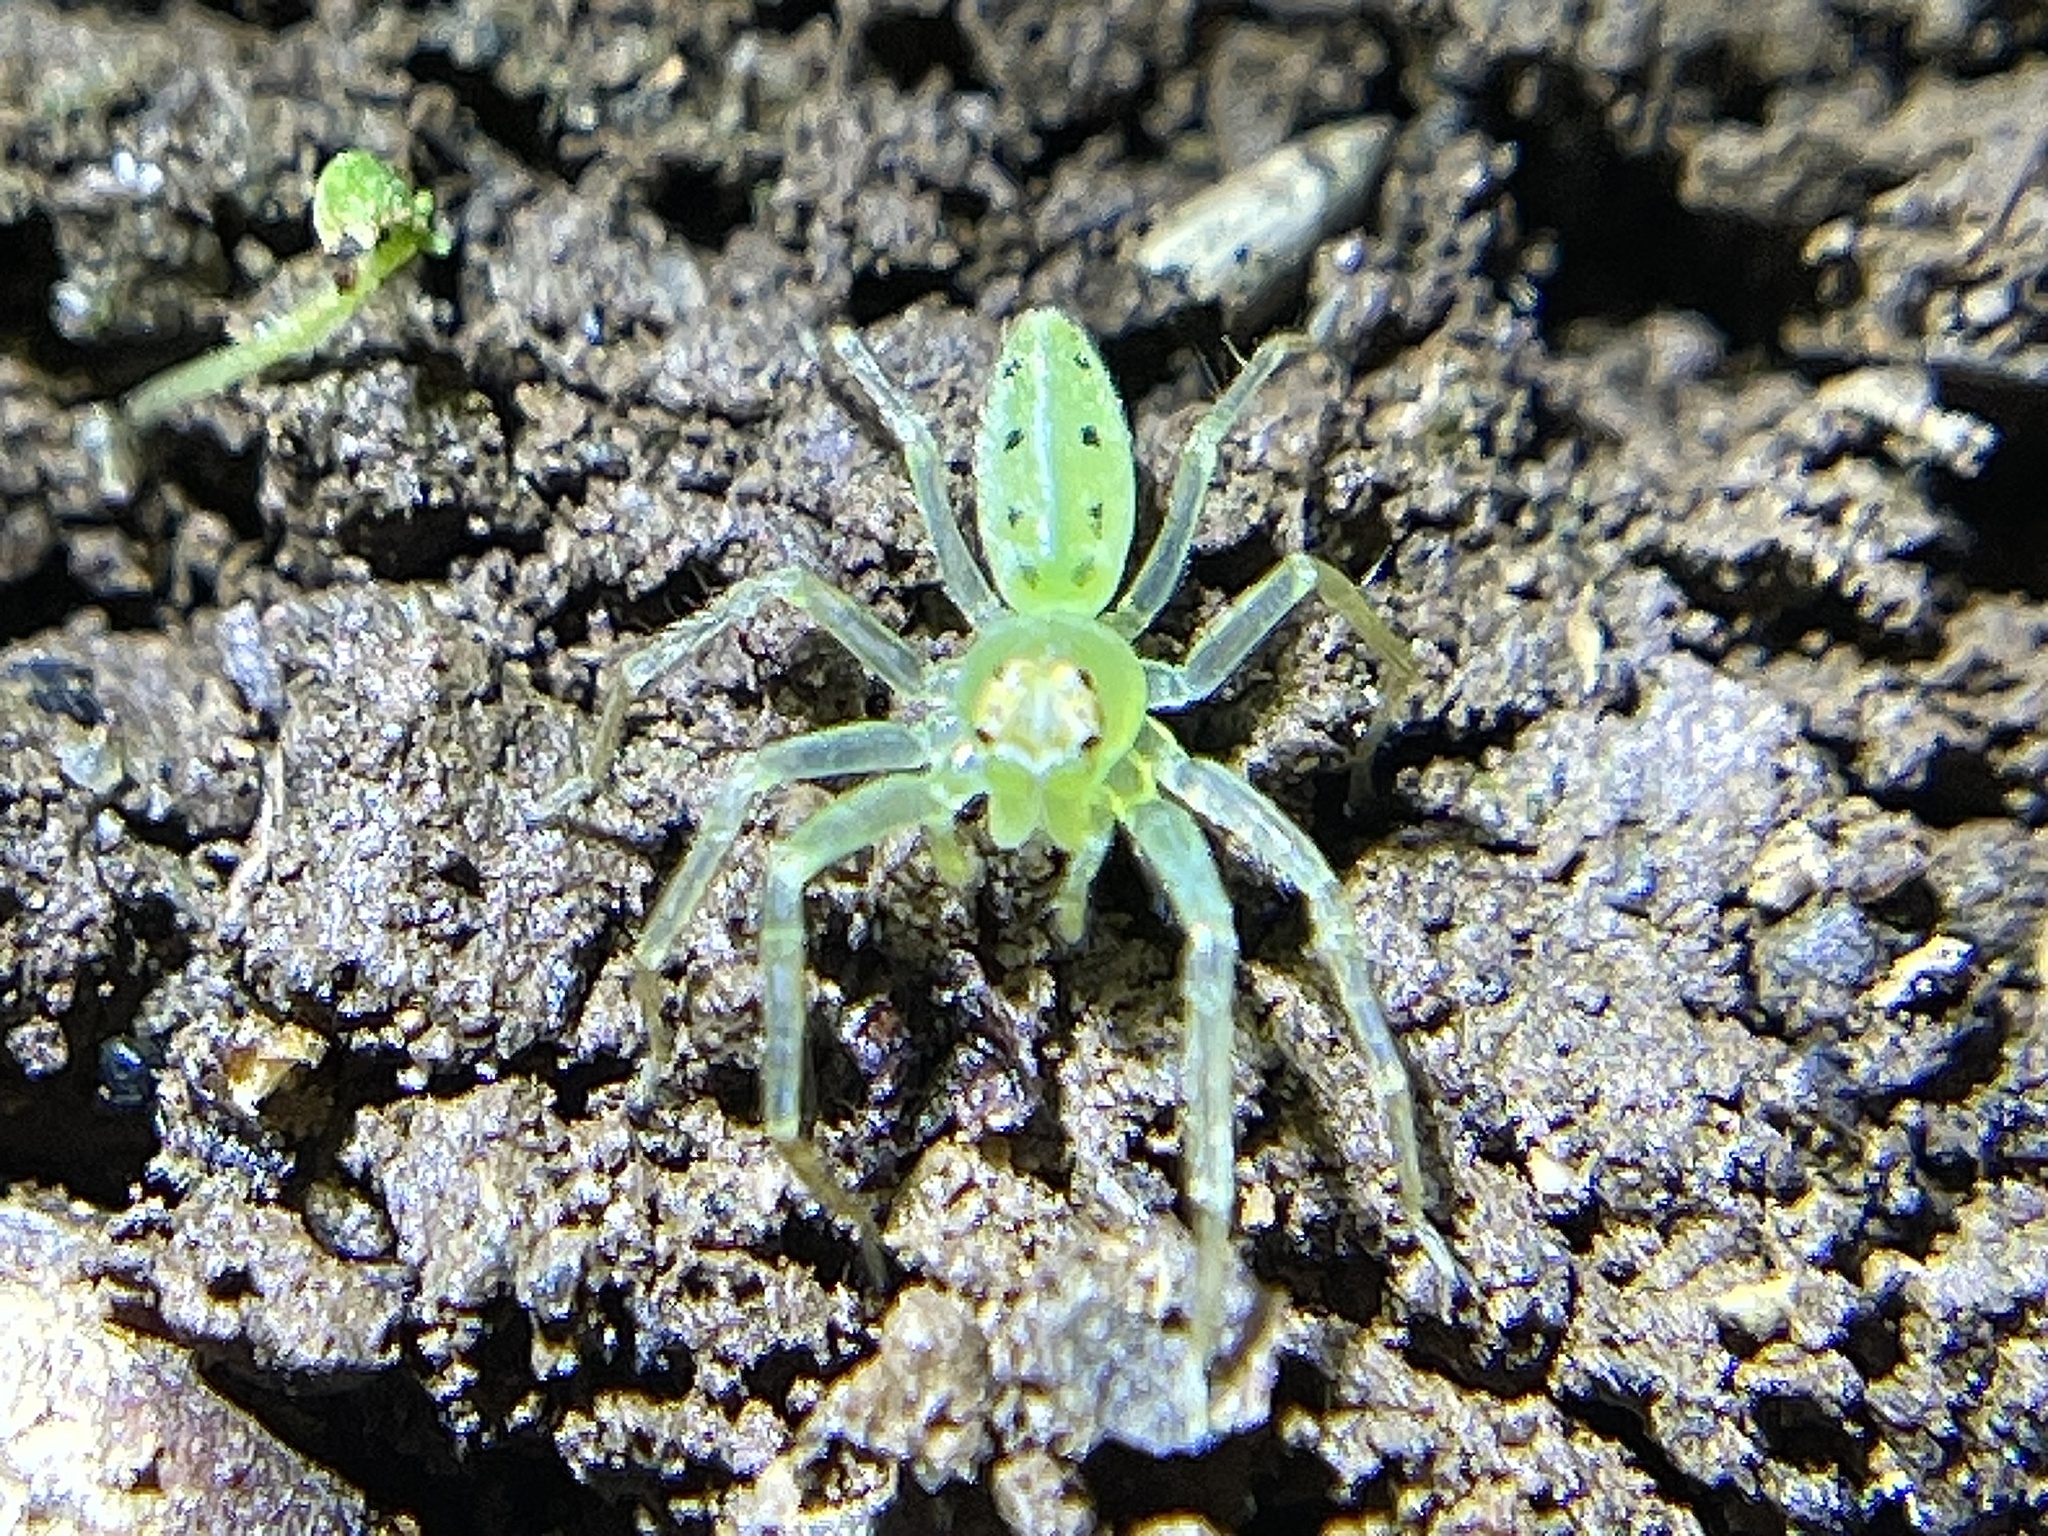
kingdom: Animalia
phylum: Arthropoda
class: Arachnida
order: Araneae
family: Salticidae
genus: Lyssomanes
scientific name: Lyssomanes viridis
